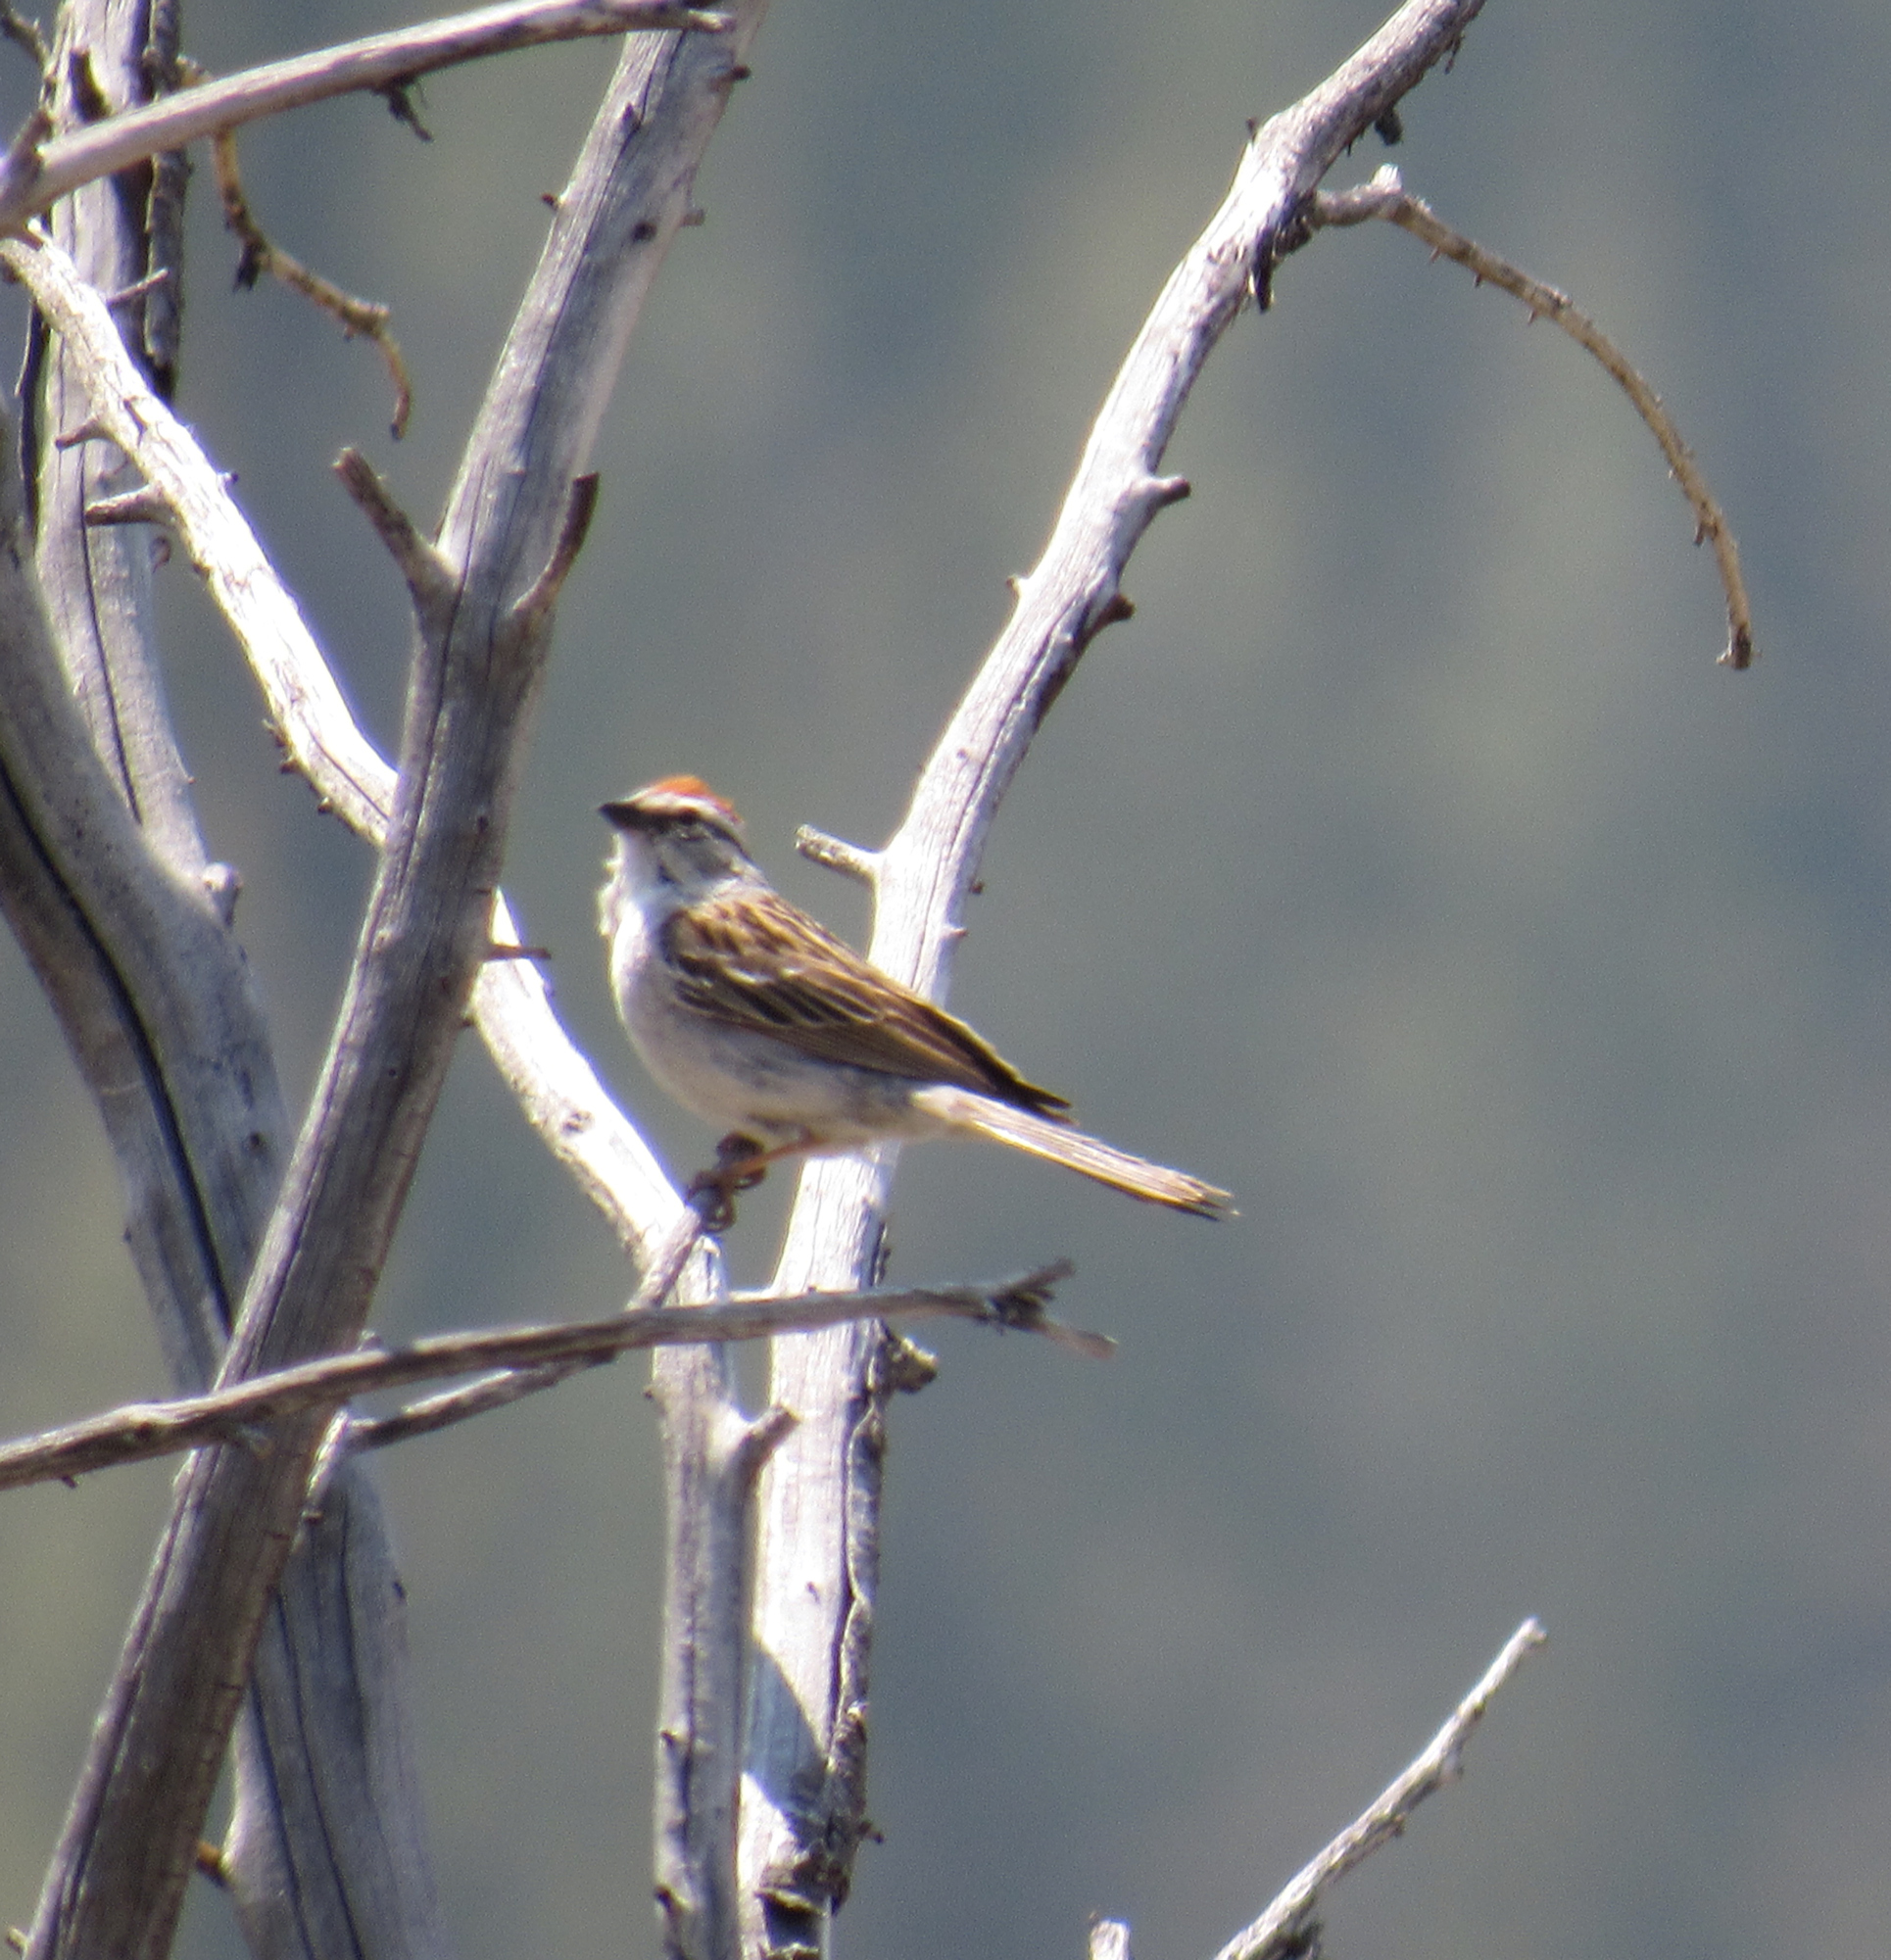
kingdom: Animalia
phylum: Chordata
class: Aves
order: Passeriformes
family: Passerellidae
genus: Spizella
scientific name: Spizella passerina
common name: Chipping sparrow
